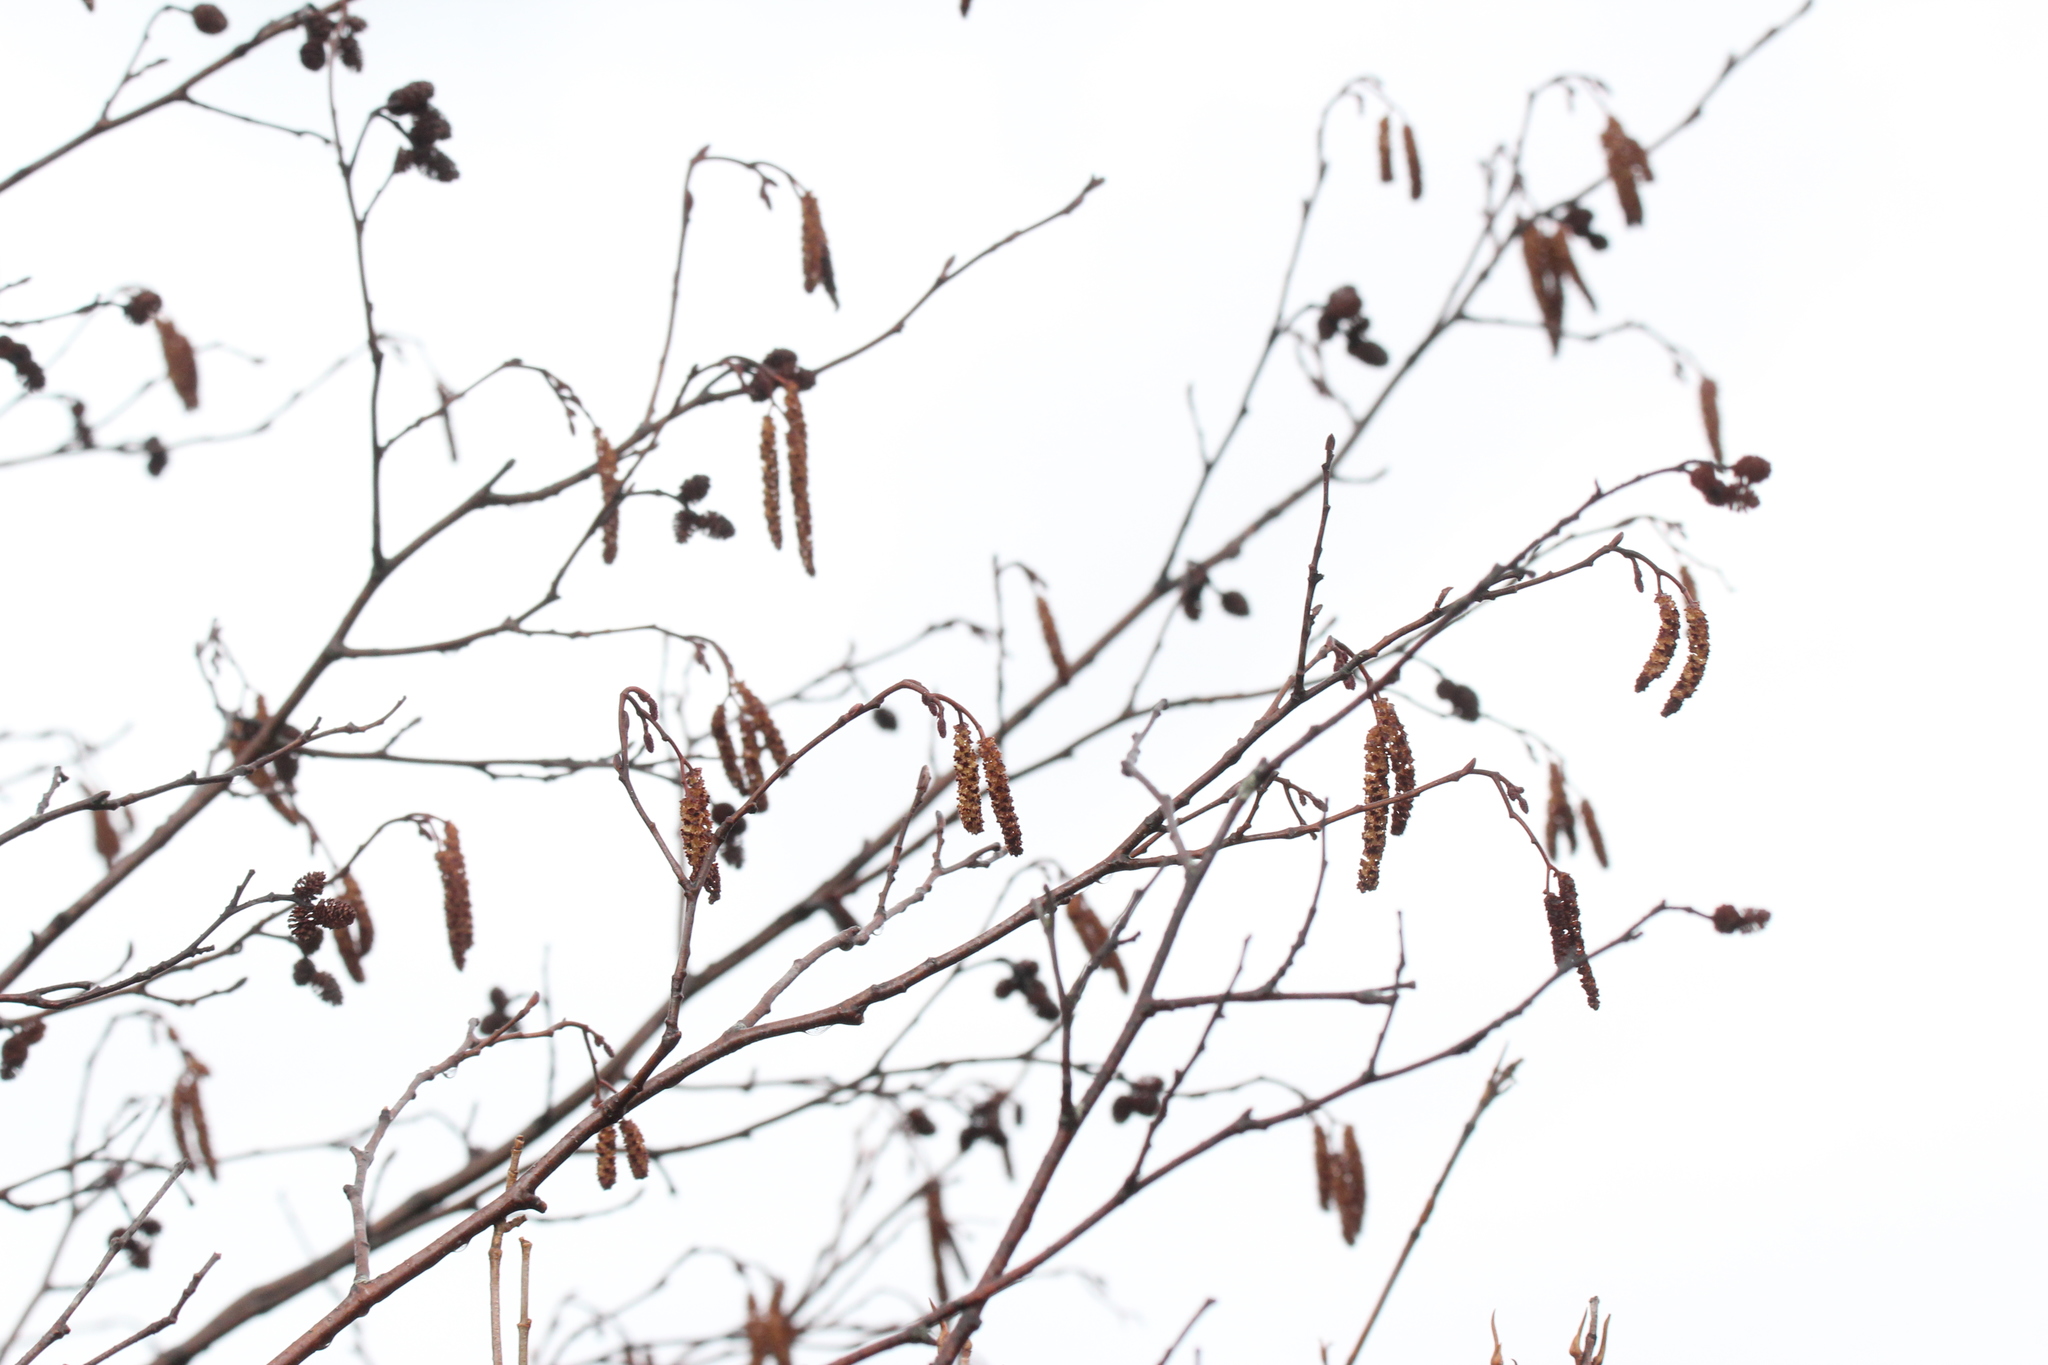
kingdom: Plantae
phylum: Tracheophyta
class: Magnoliopsida
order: Fagales
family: Betulaceae
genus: Alnus
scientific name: Alnus incana
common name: Grey alder
